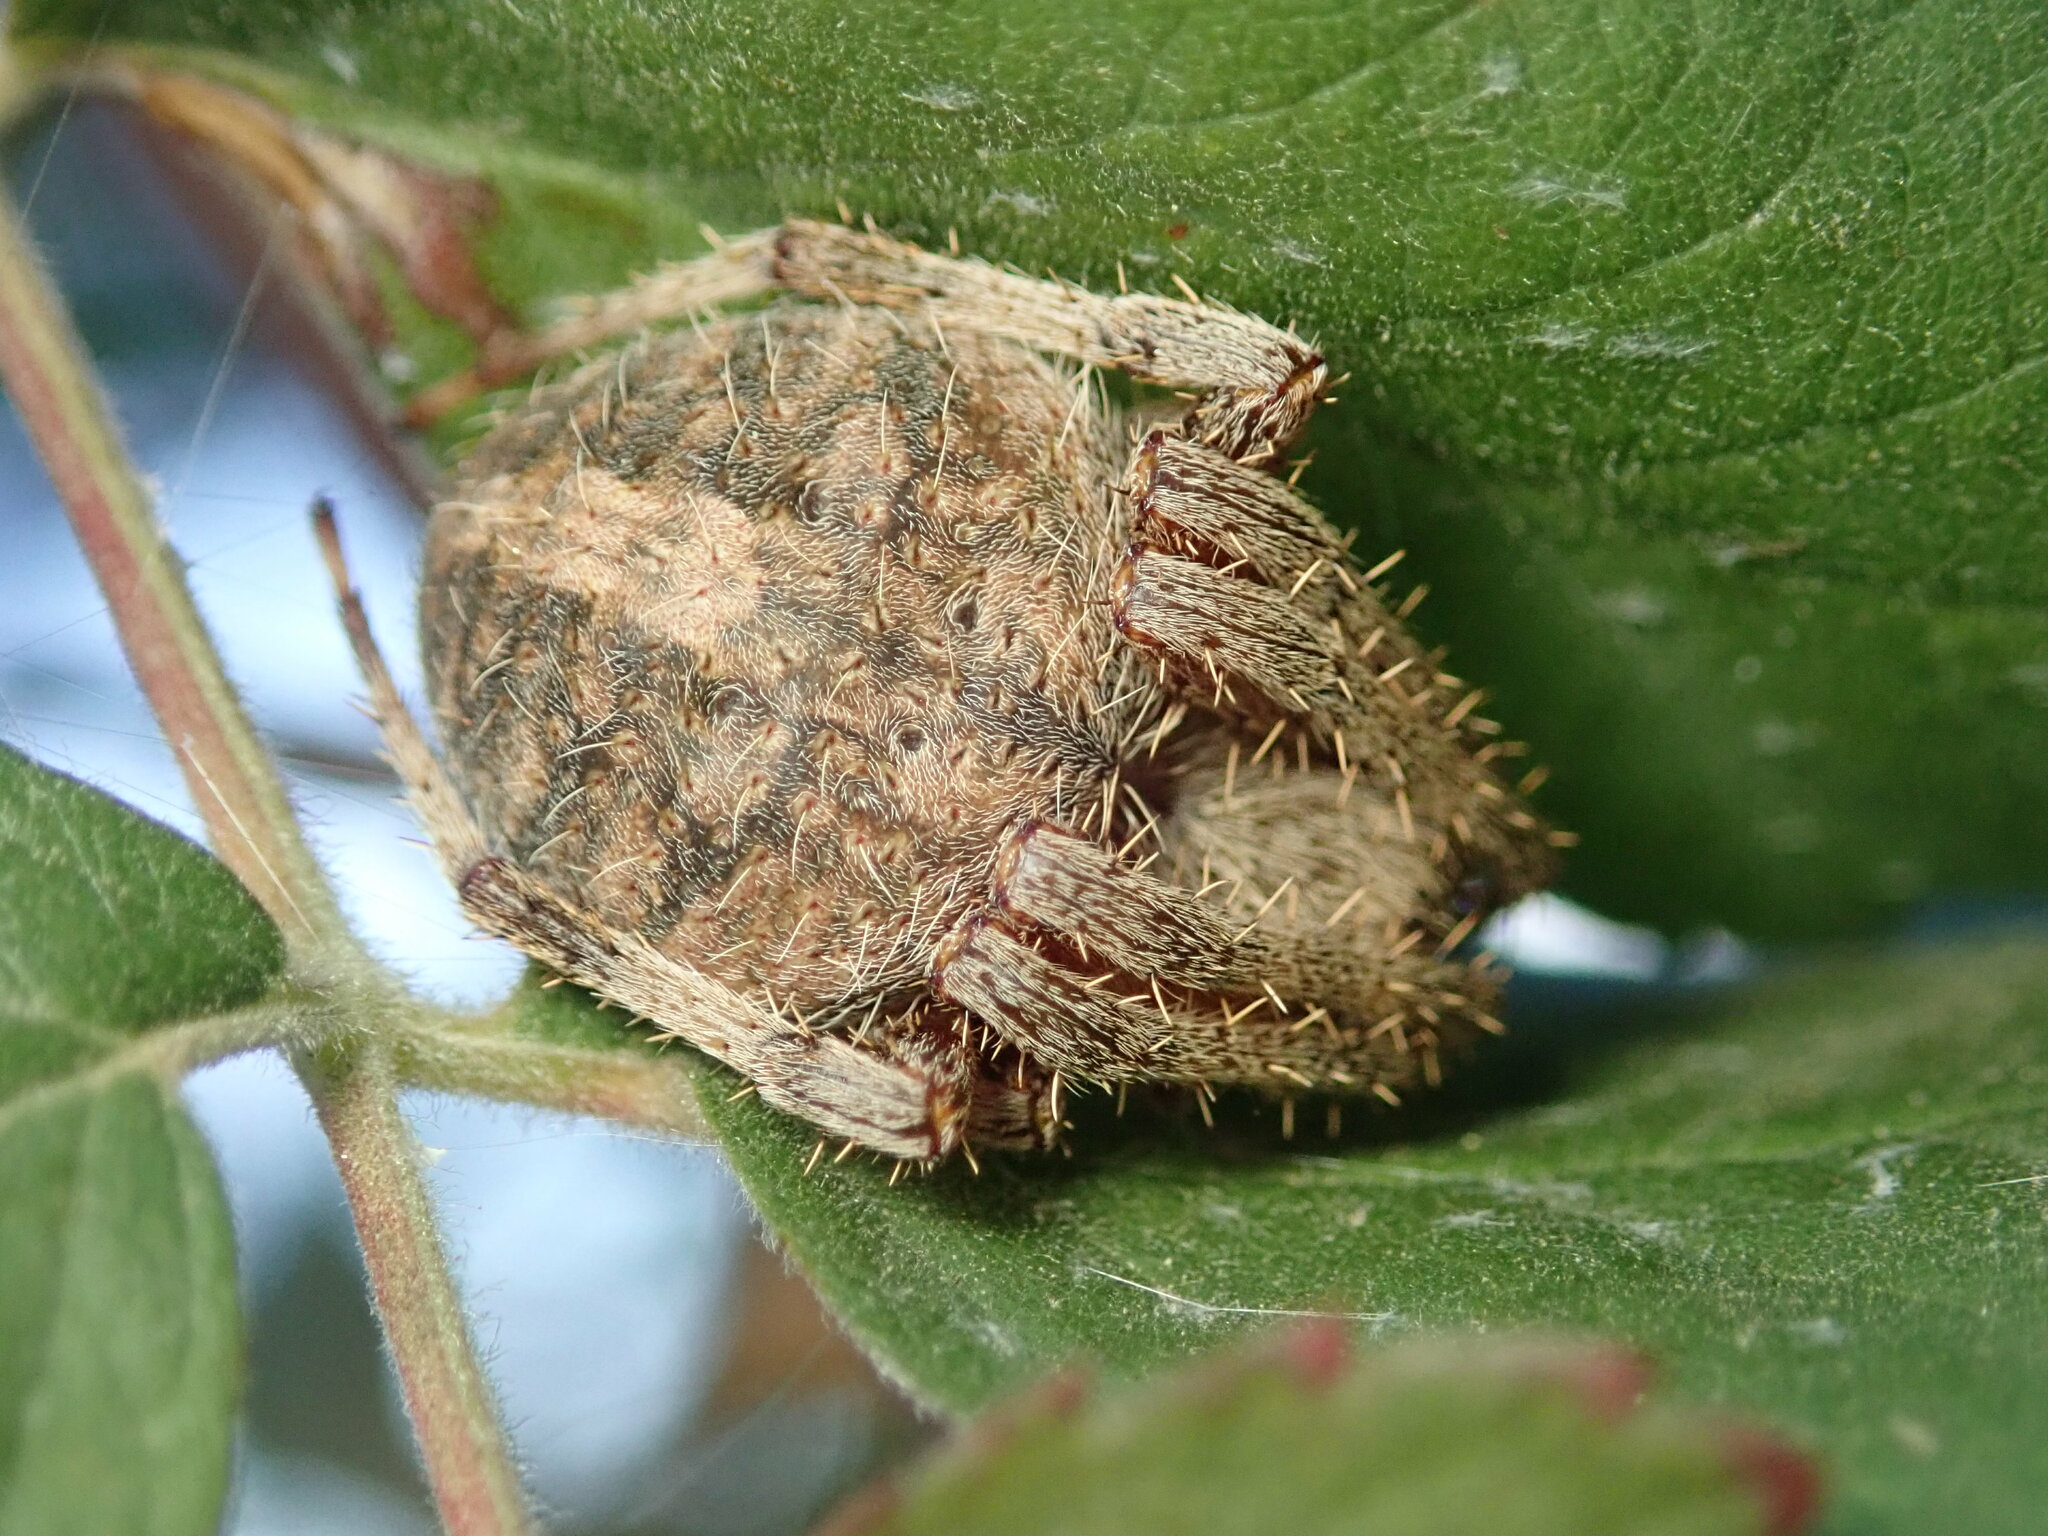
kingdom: Animalia
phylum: Arthropoda
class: Arachnida
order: Araneae
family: Araneidae
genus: Neoscona
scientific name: Neoscona crucifera
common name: Spotted orbweaver
